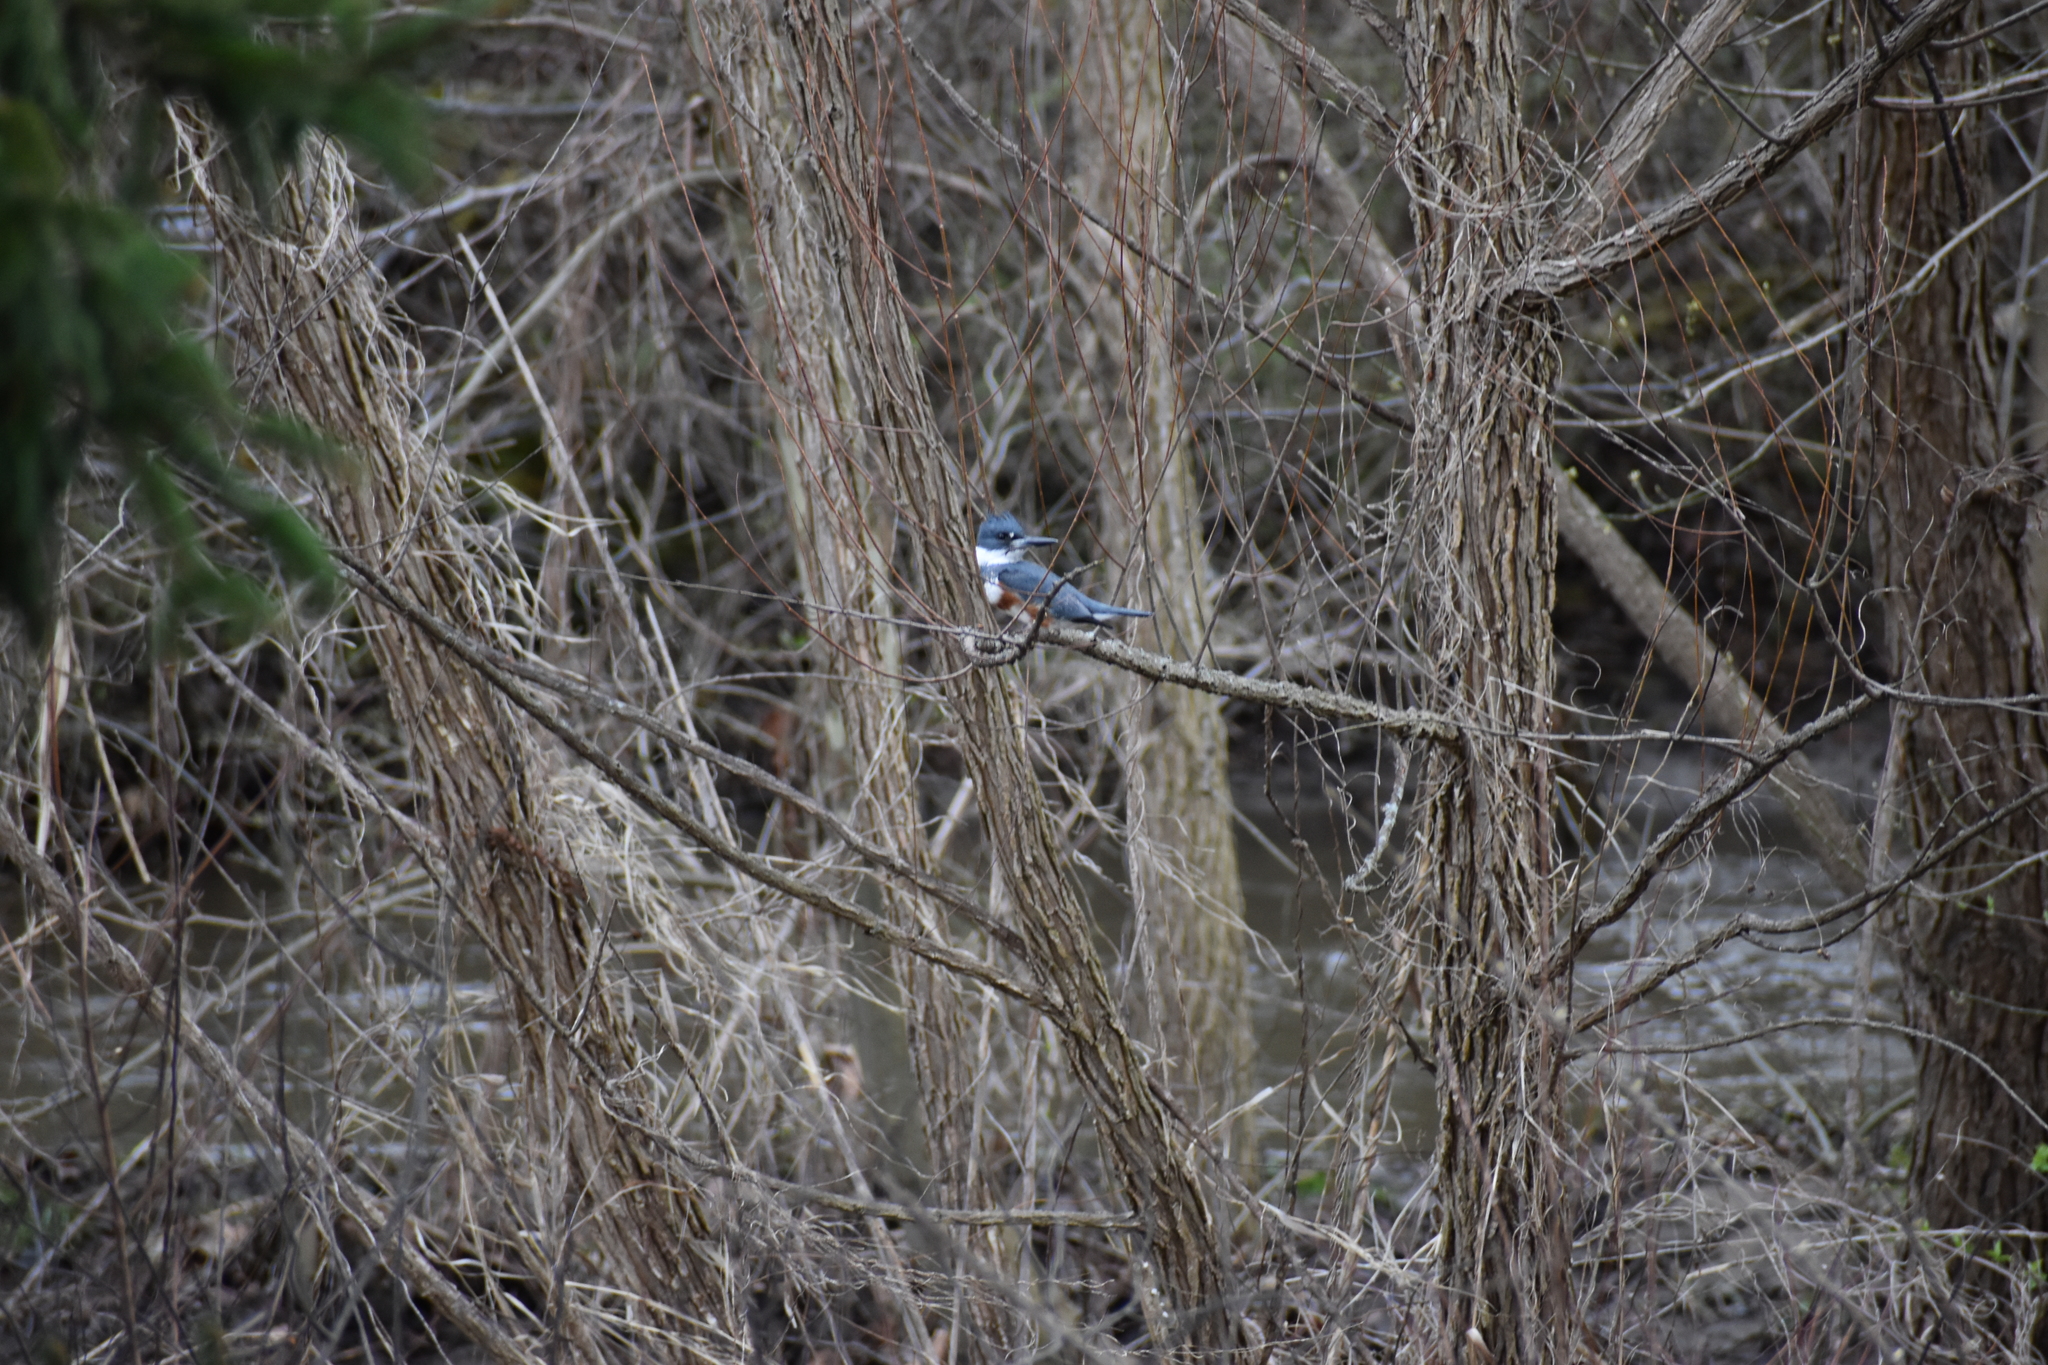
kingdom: Animalia
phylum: Chordata
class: Aves
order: Coraciiformes
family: Alcedinidae
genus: Megaceryle
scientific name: Megaceryle alcyon
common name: Belted kingfisher
